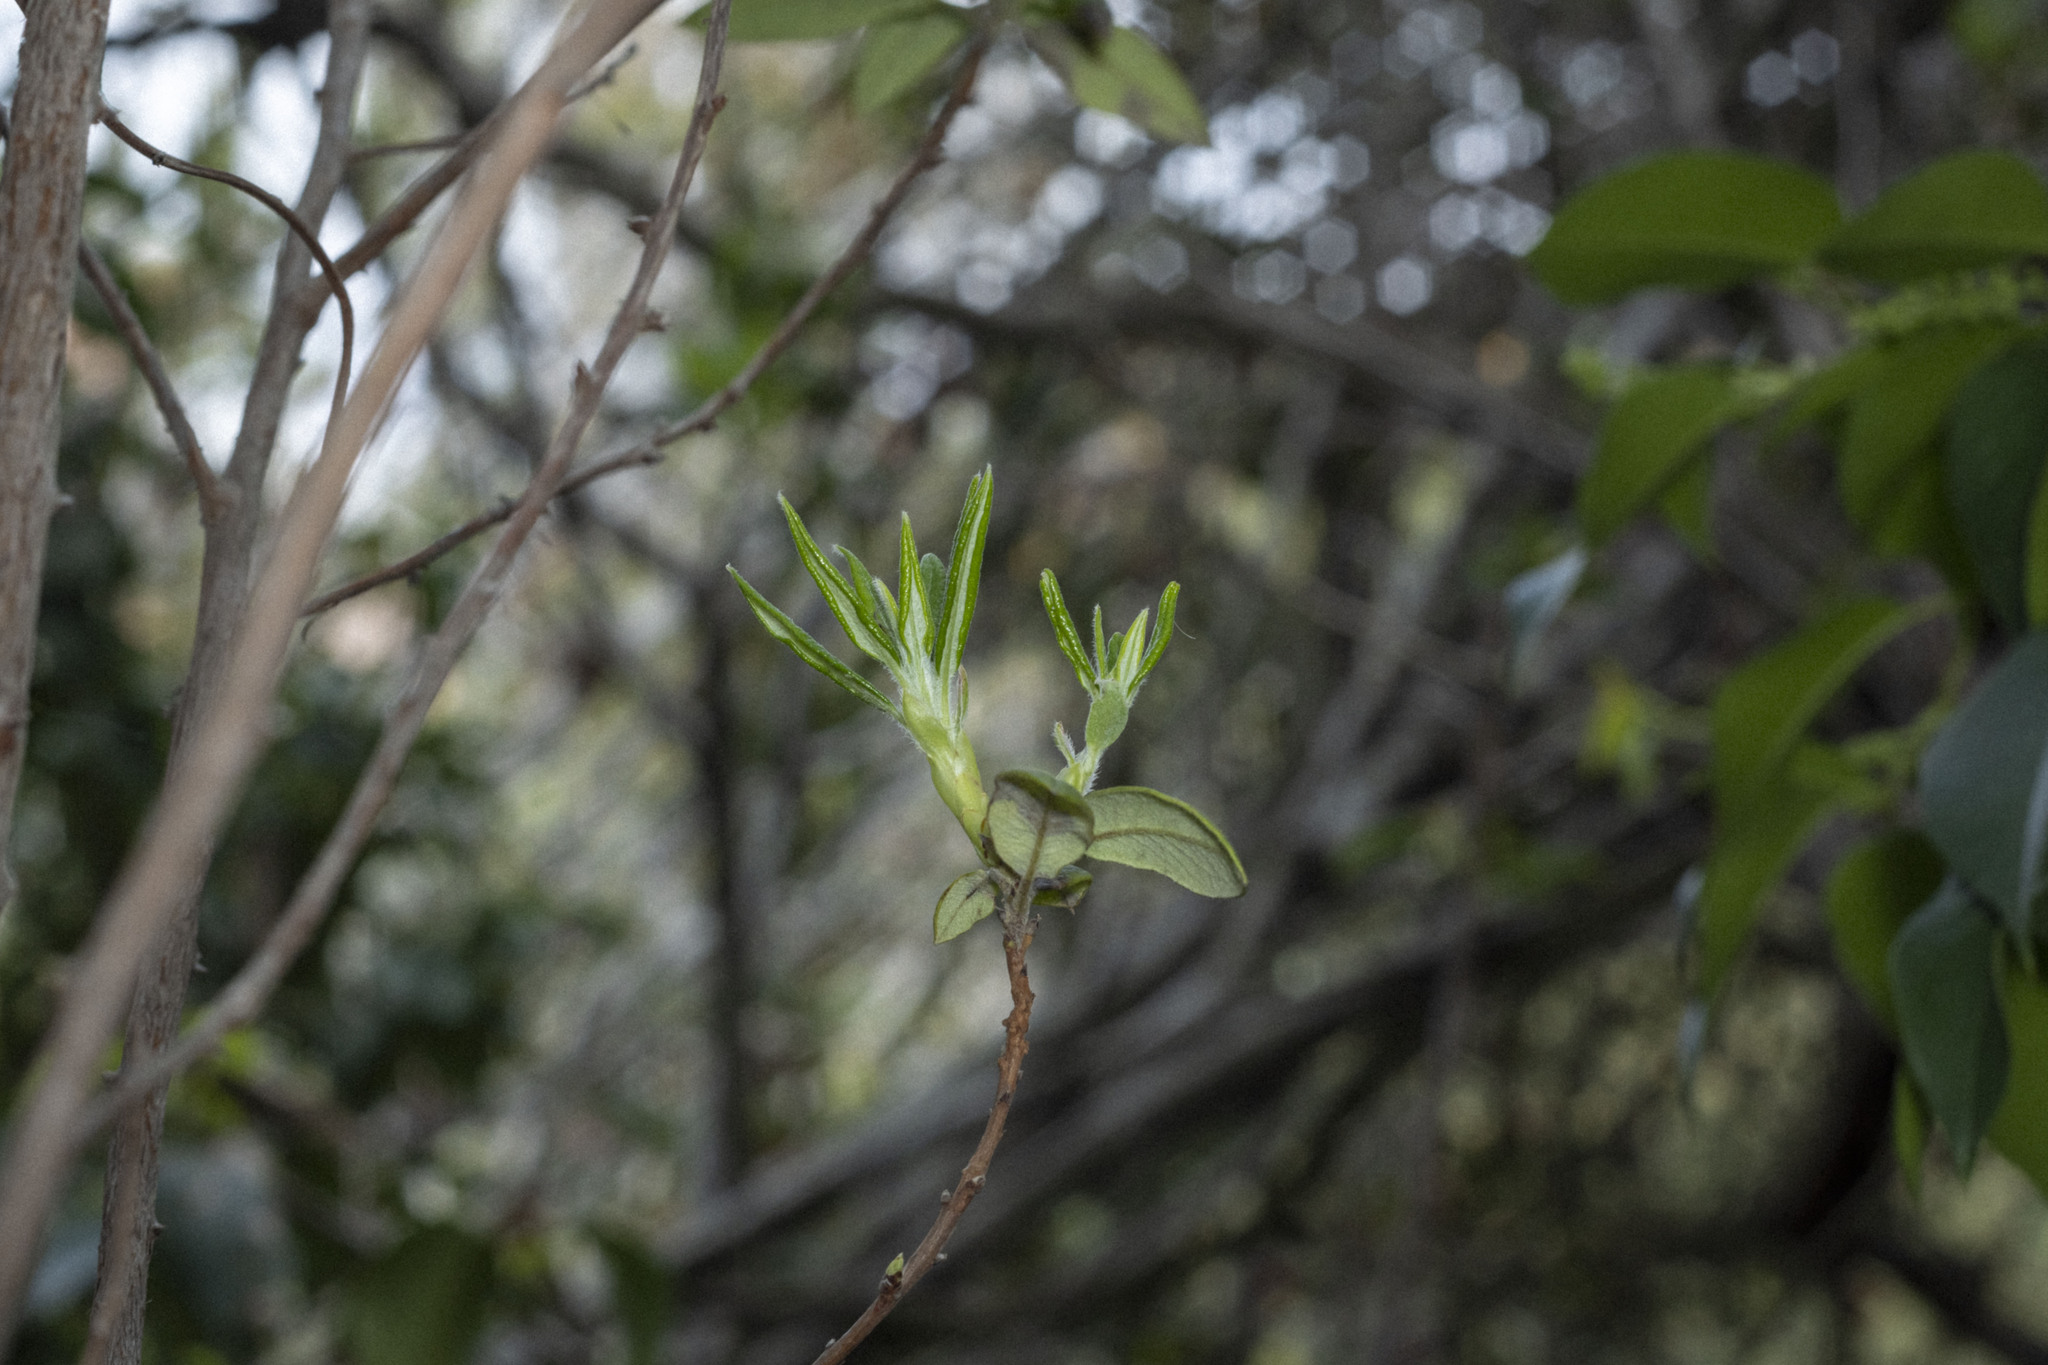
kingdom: Plantae
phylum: Tracheophyta
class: Magnoliopsida
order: Ericales
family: Ericaceae
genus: Arctostaphylos
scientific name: Arctostaphylos bicolor
